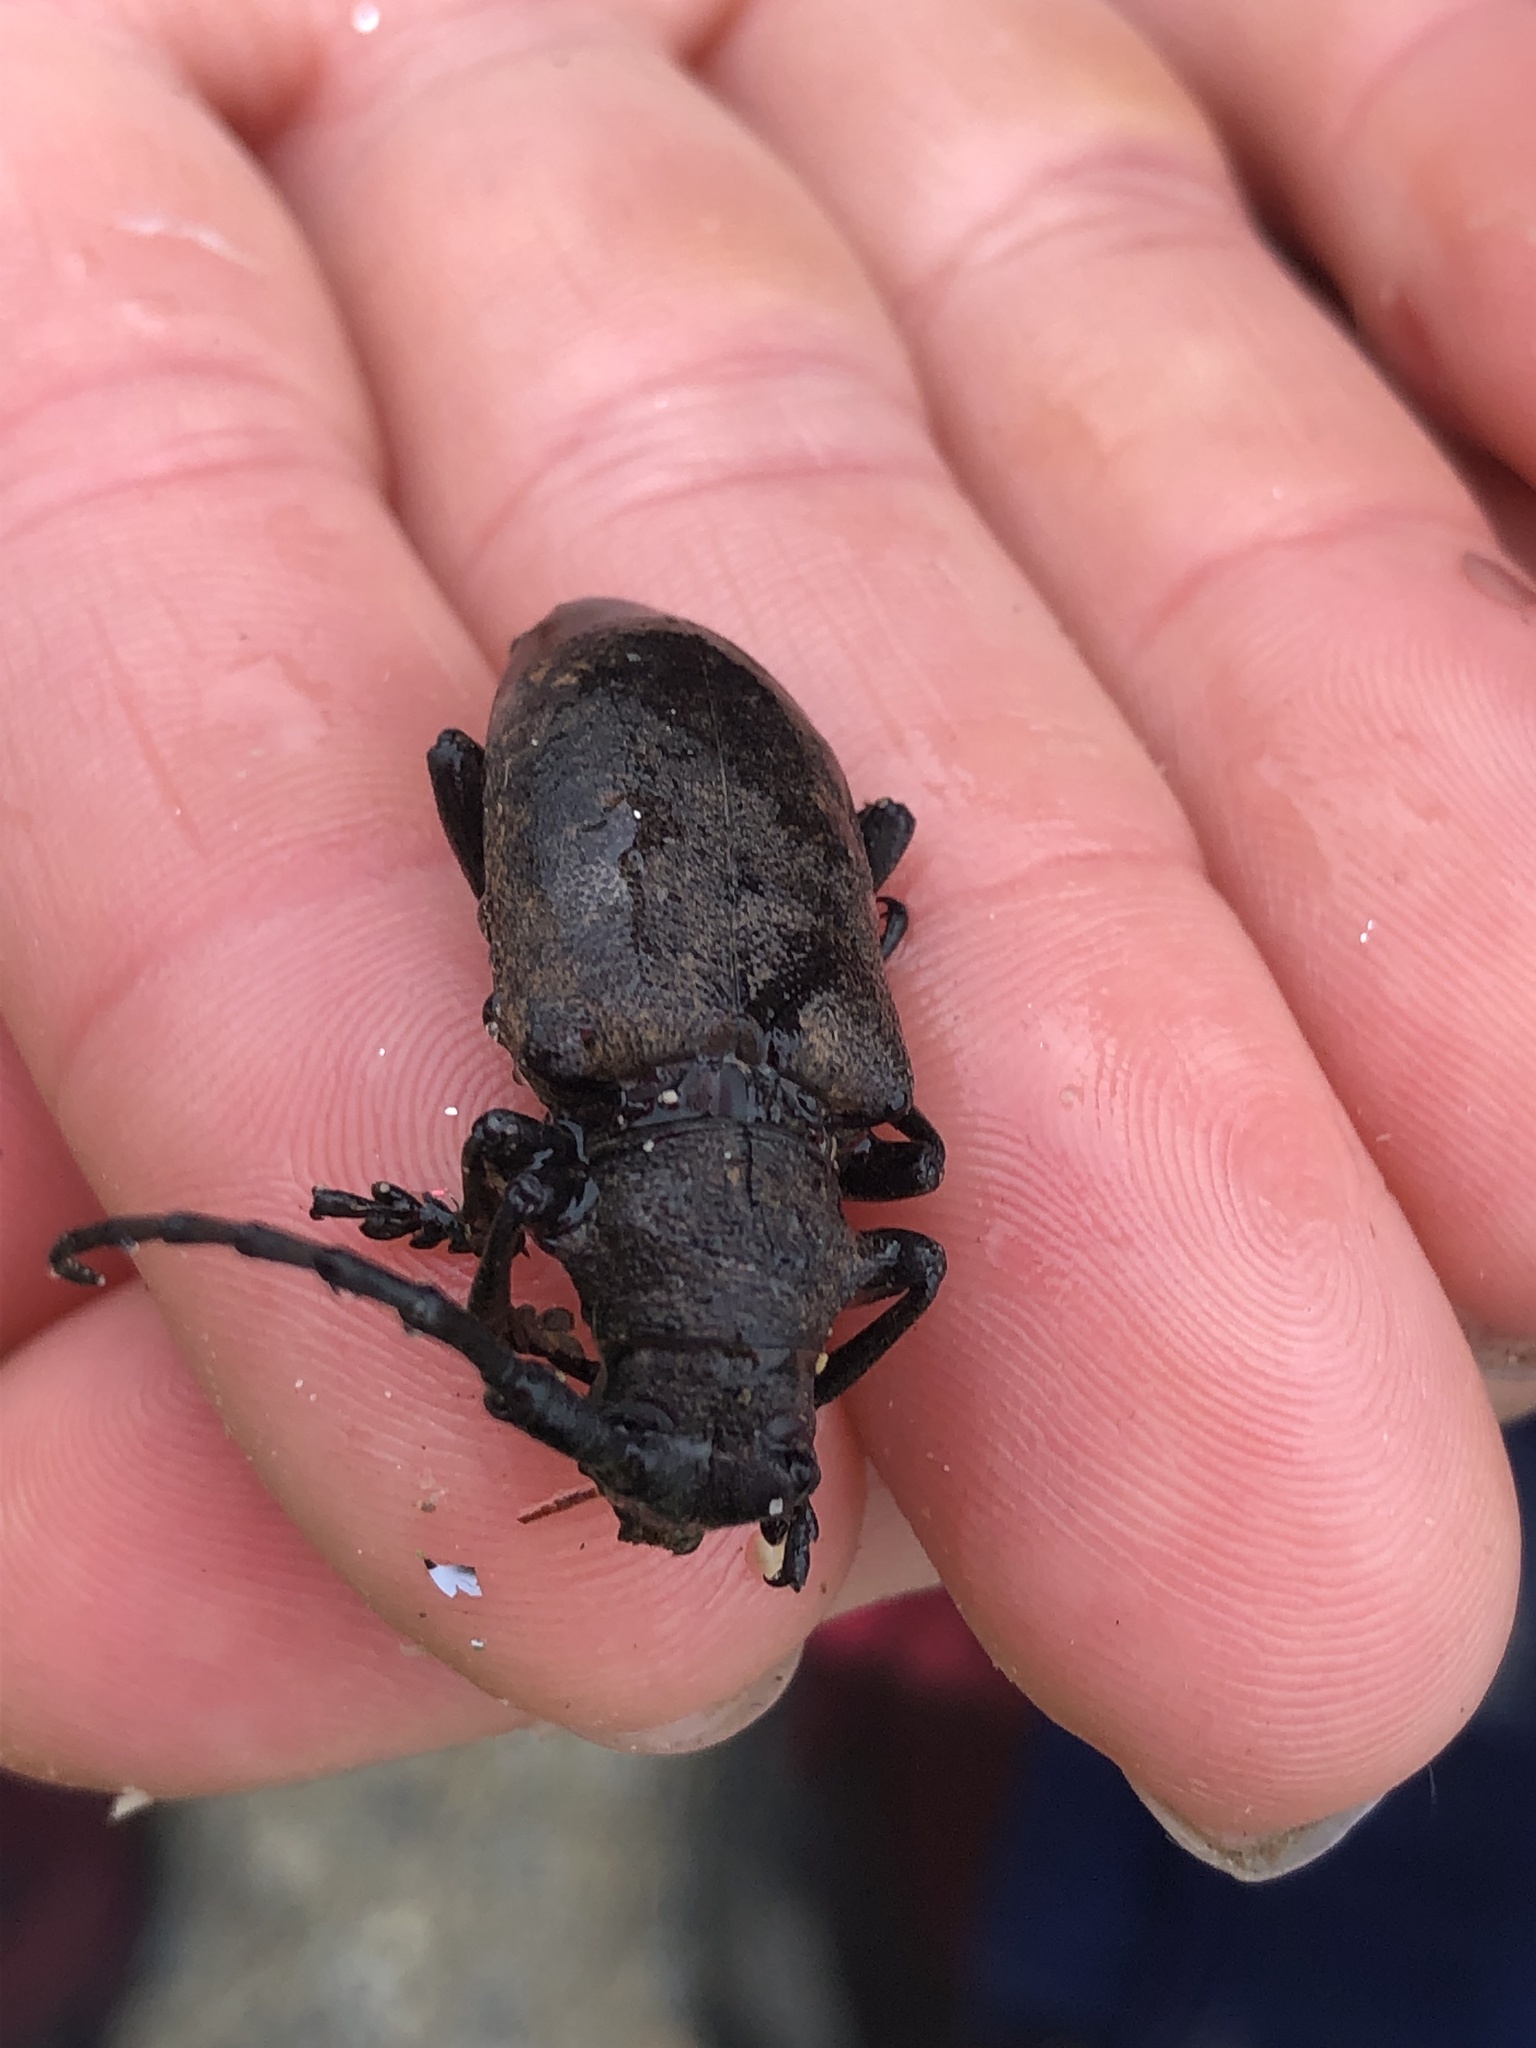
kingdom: Animalia
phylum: Arthropoda
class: Insecta
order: Coleoptera
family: Cerambycidae
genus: Lamia
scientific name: Lamia textor
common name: Weaver beetle
